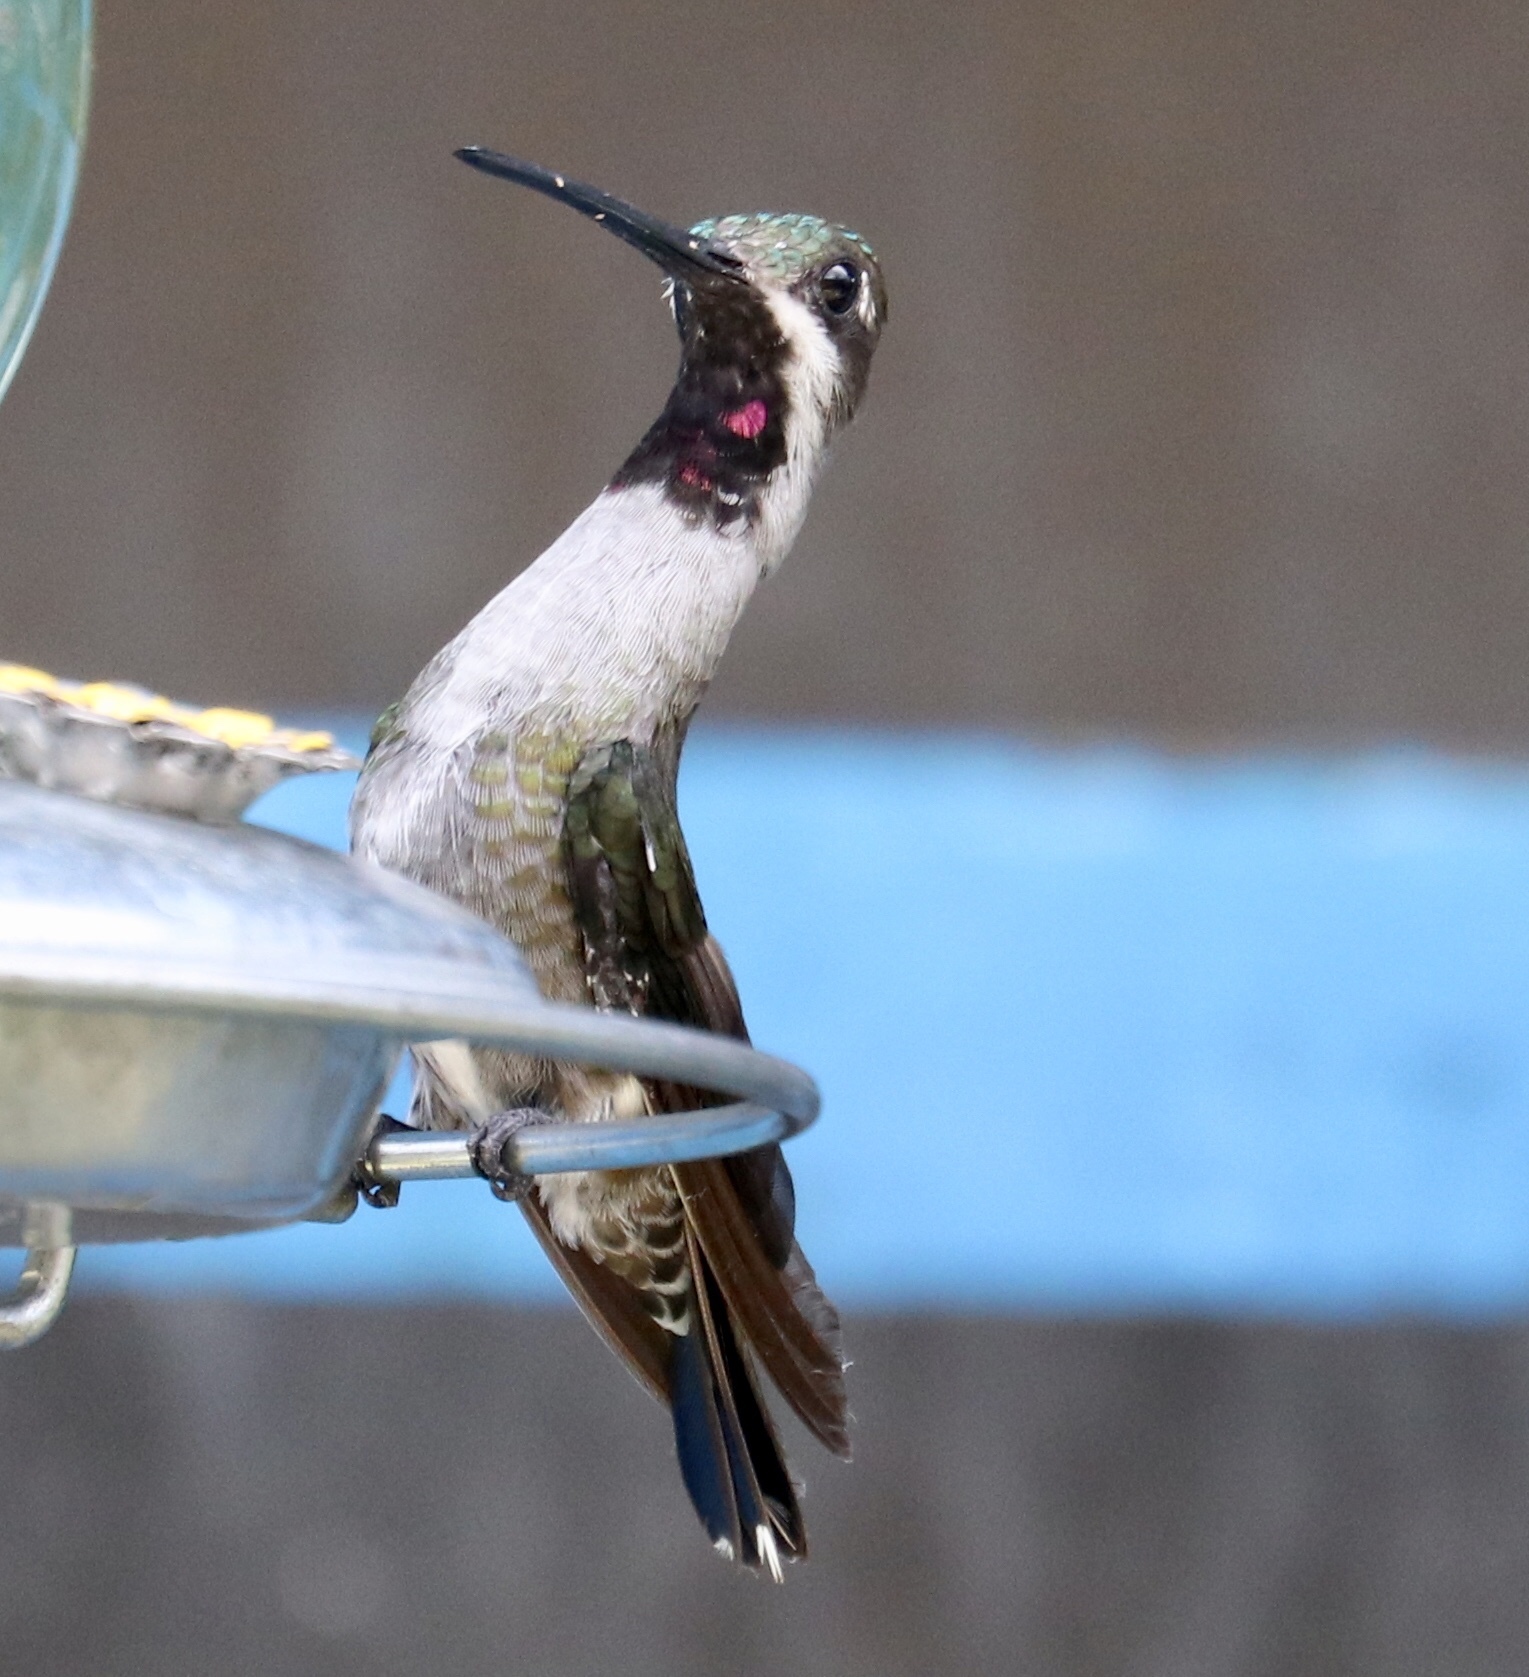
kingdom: Animalia
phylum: Chordata
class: Aves
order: Apodiformes
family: Trochilidae
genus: Heliomaster
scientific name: Heliomaster longirostris
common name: Long-billed starthroat
